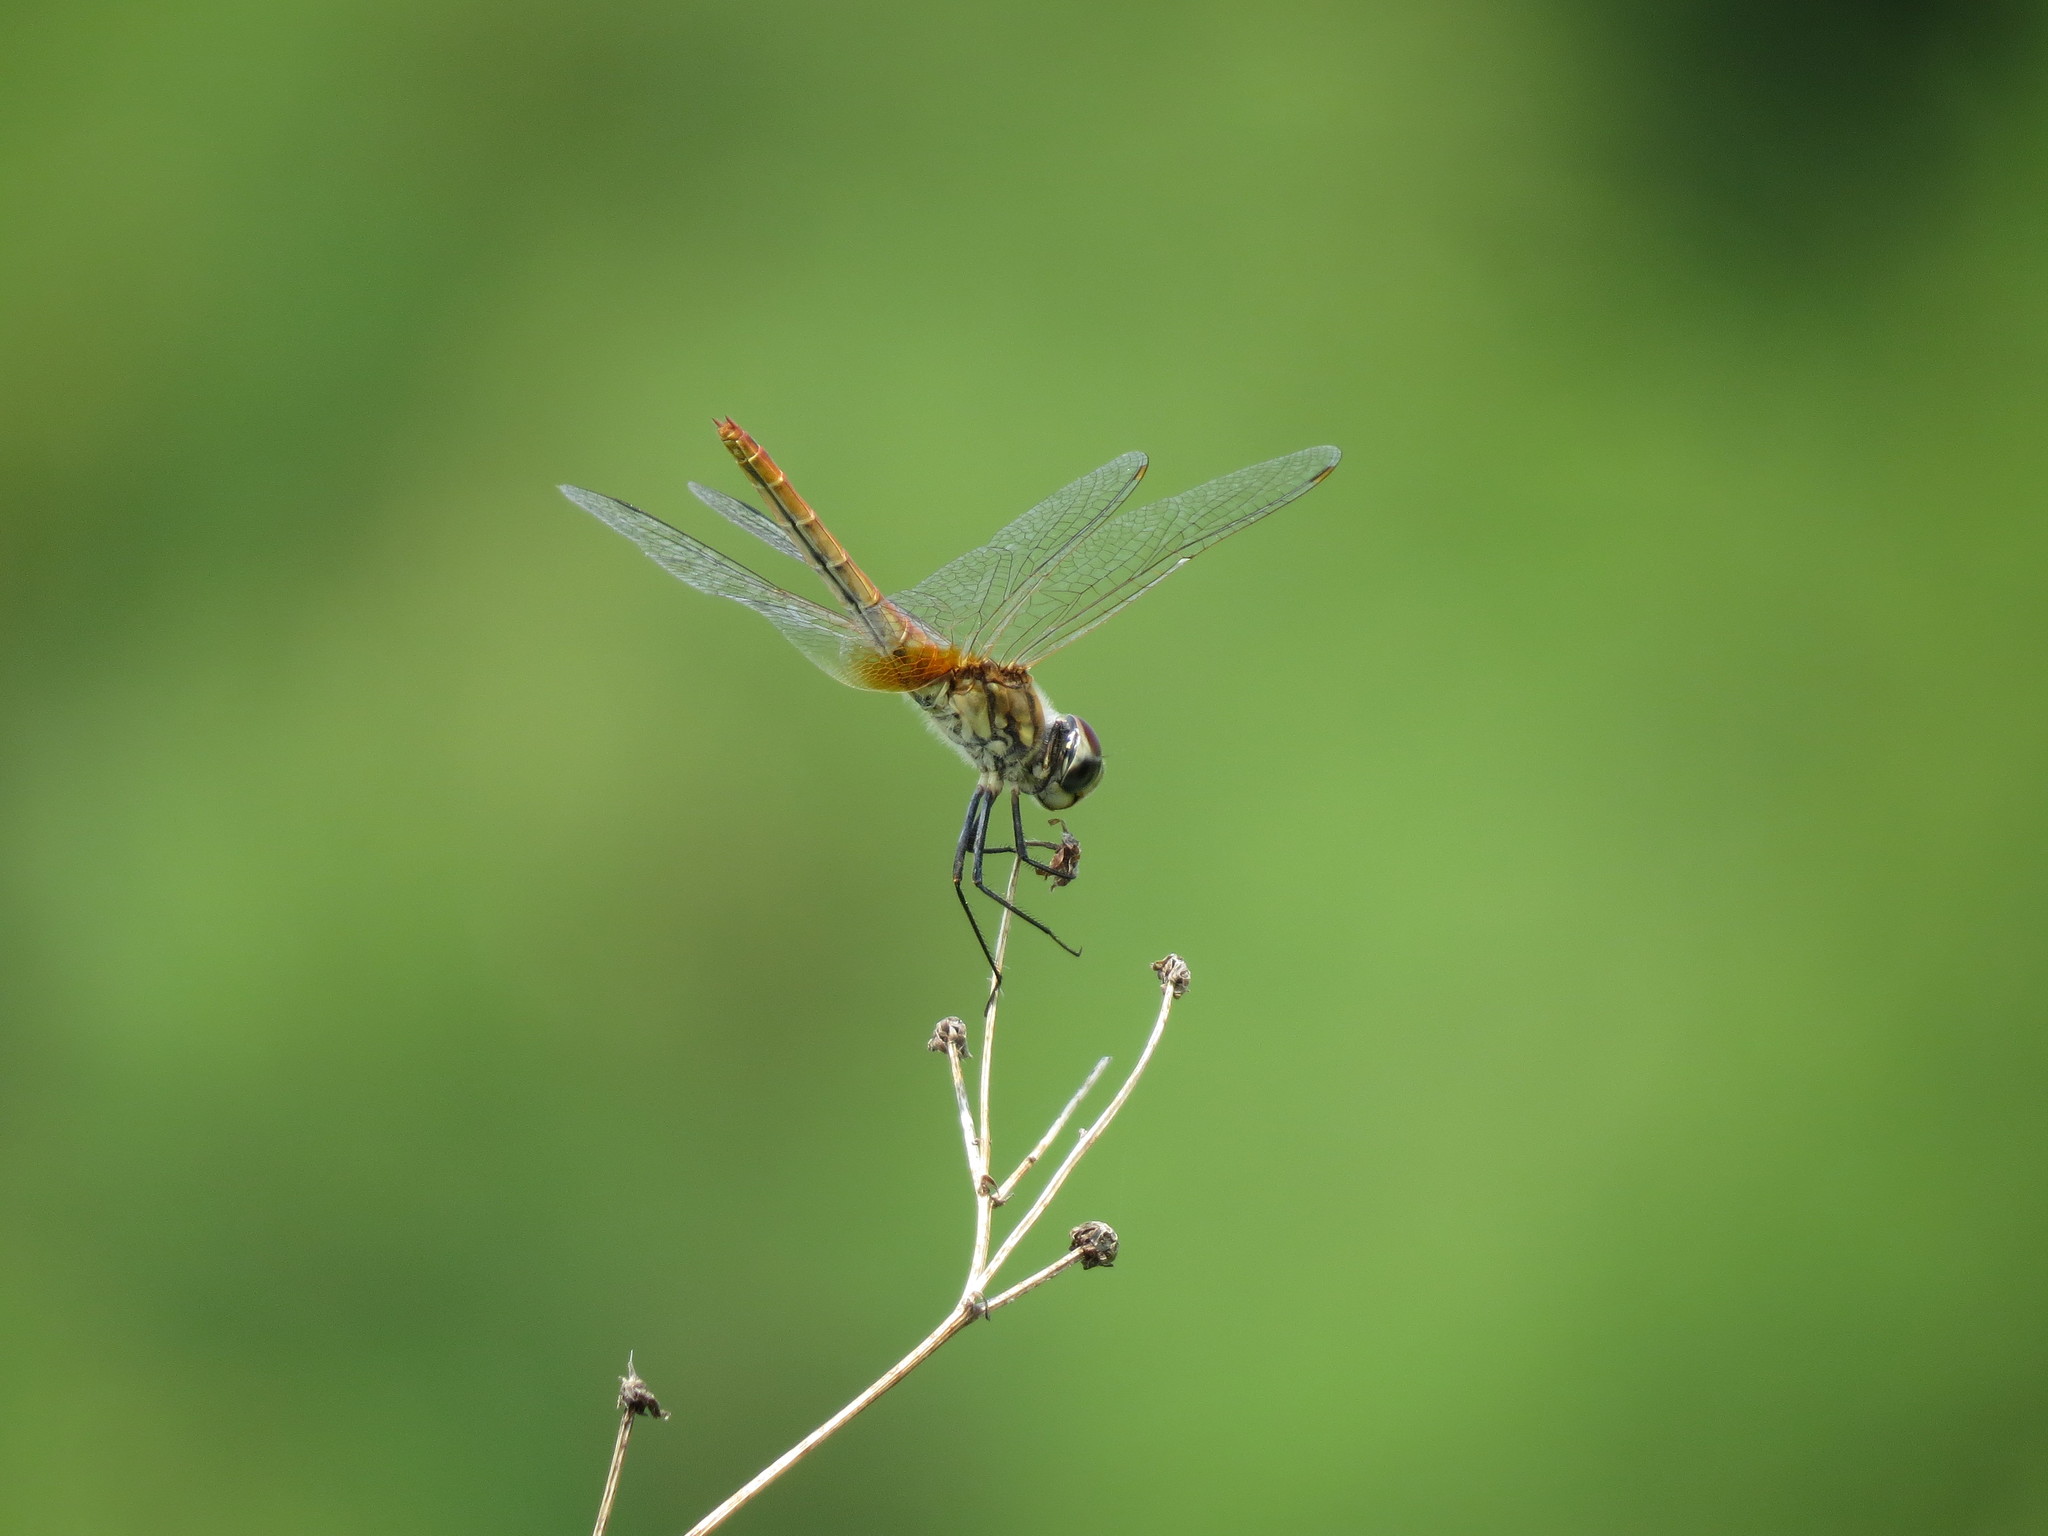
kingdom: Animalia
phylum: Arthropoda
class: Insecta
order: Odonata
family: Libellulidae
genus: Macrodiplax
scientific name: Macrodiplax cora
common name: Coastal glider
